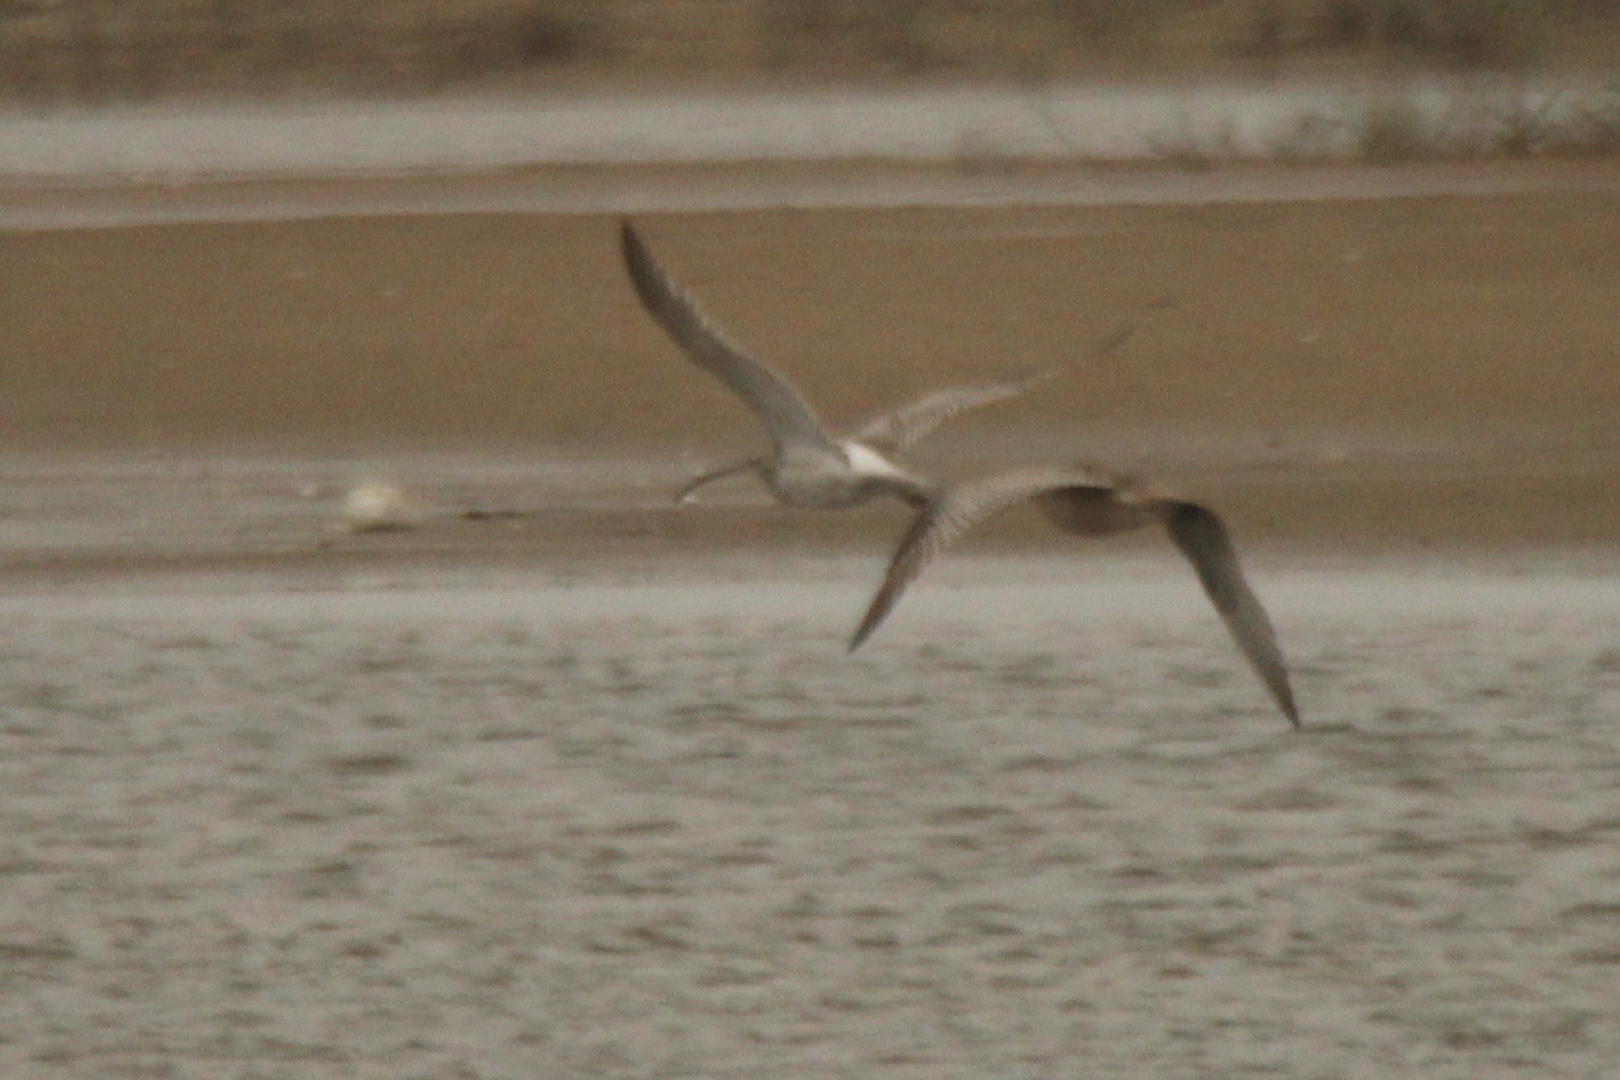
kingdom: Animalia
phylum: Chordata
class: Aves
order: Charadriiformes
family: Scolopacidae
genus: Numenius
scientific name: Numenius arquata
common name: Eurasian curlew
